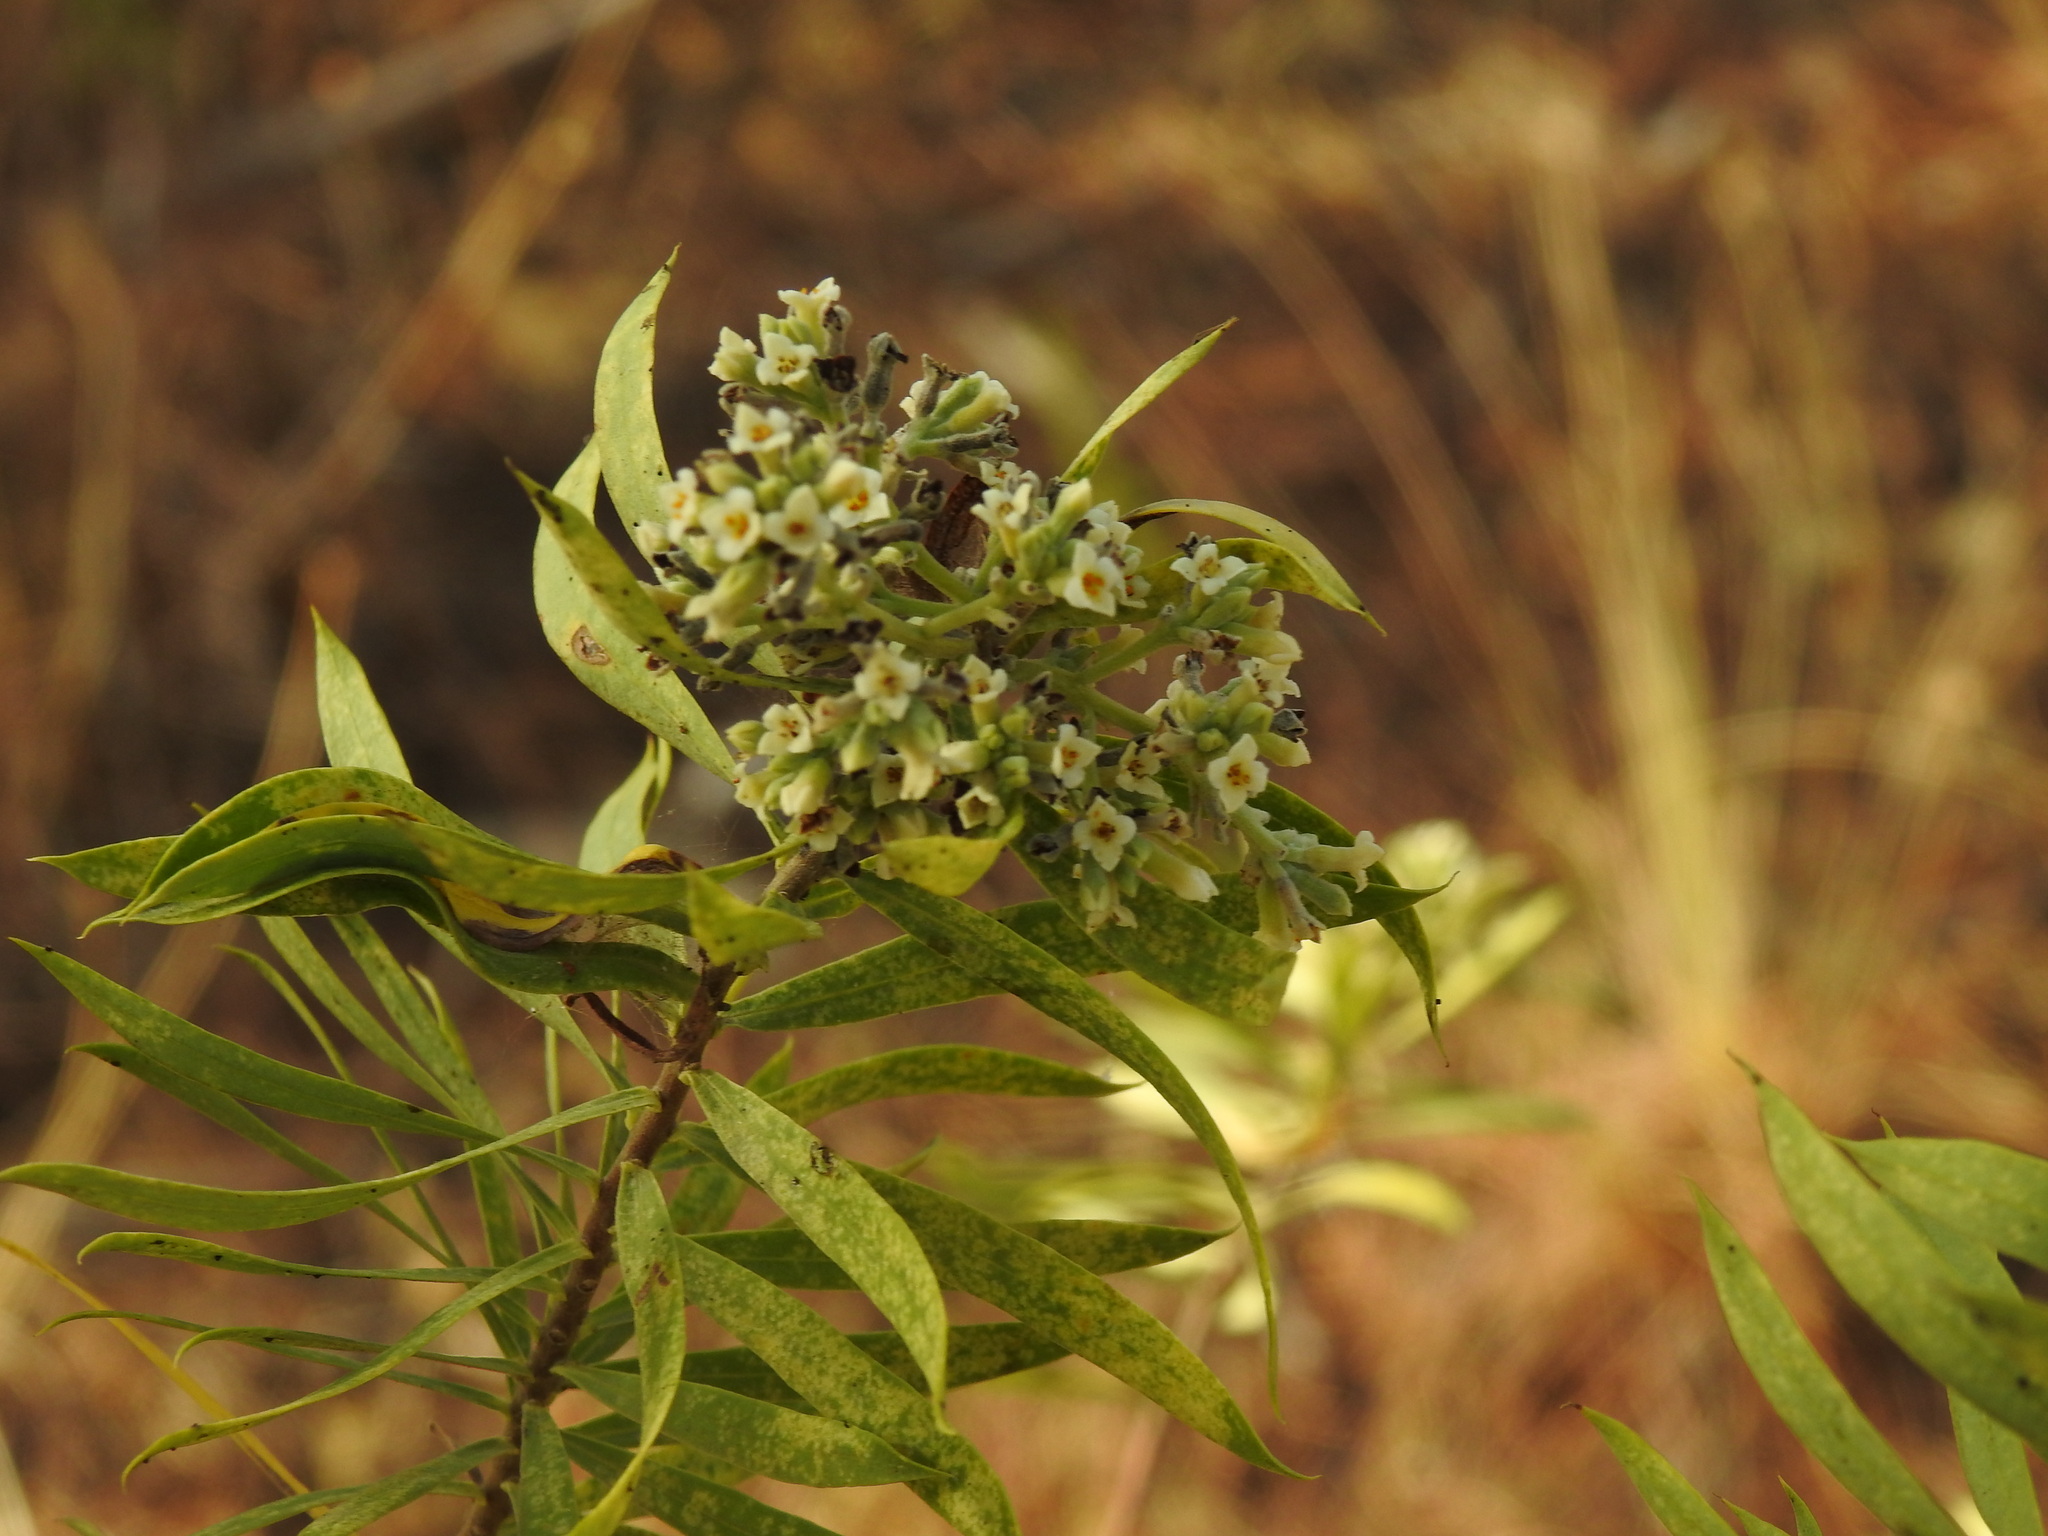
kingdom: Plantae
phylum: Tracheophyta
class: Magnoliopsida
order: Malvales
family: Thymelaeaceae
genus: Daphne
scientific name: Daphne gnidium
